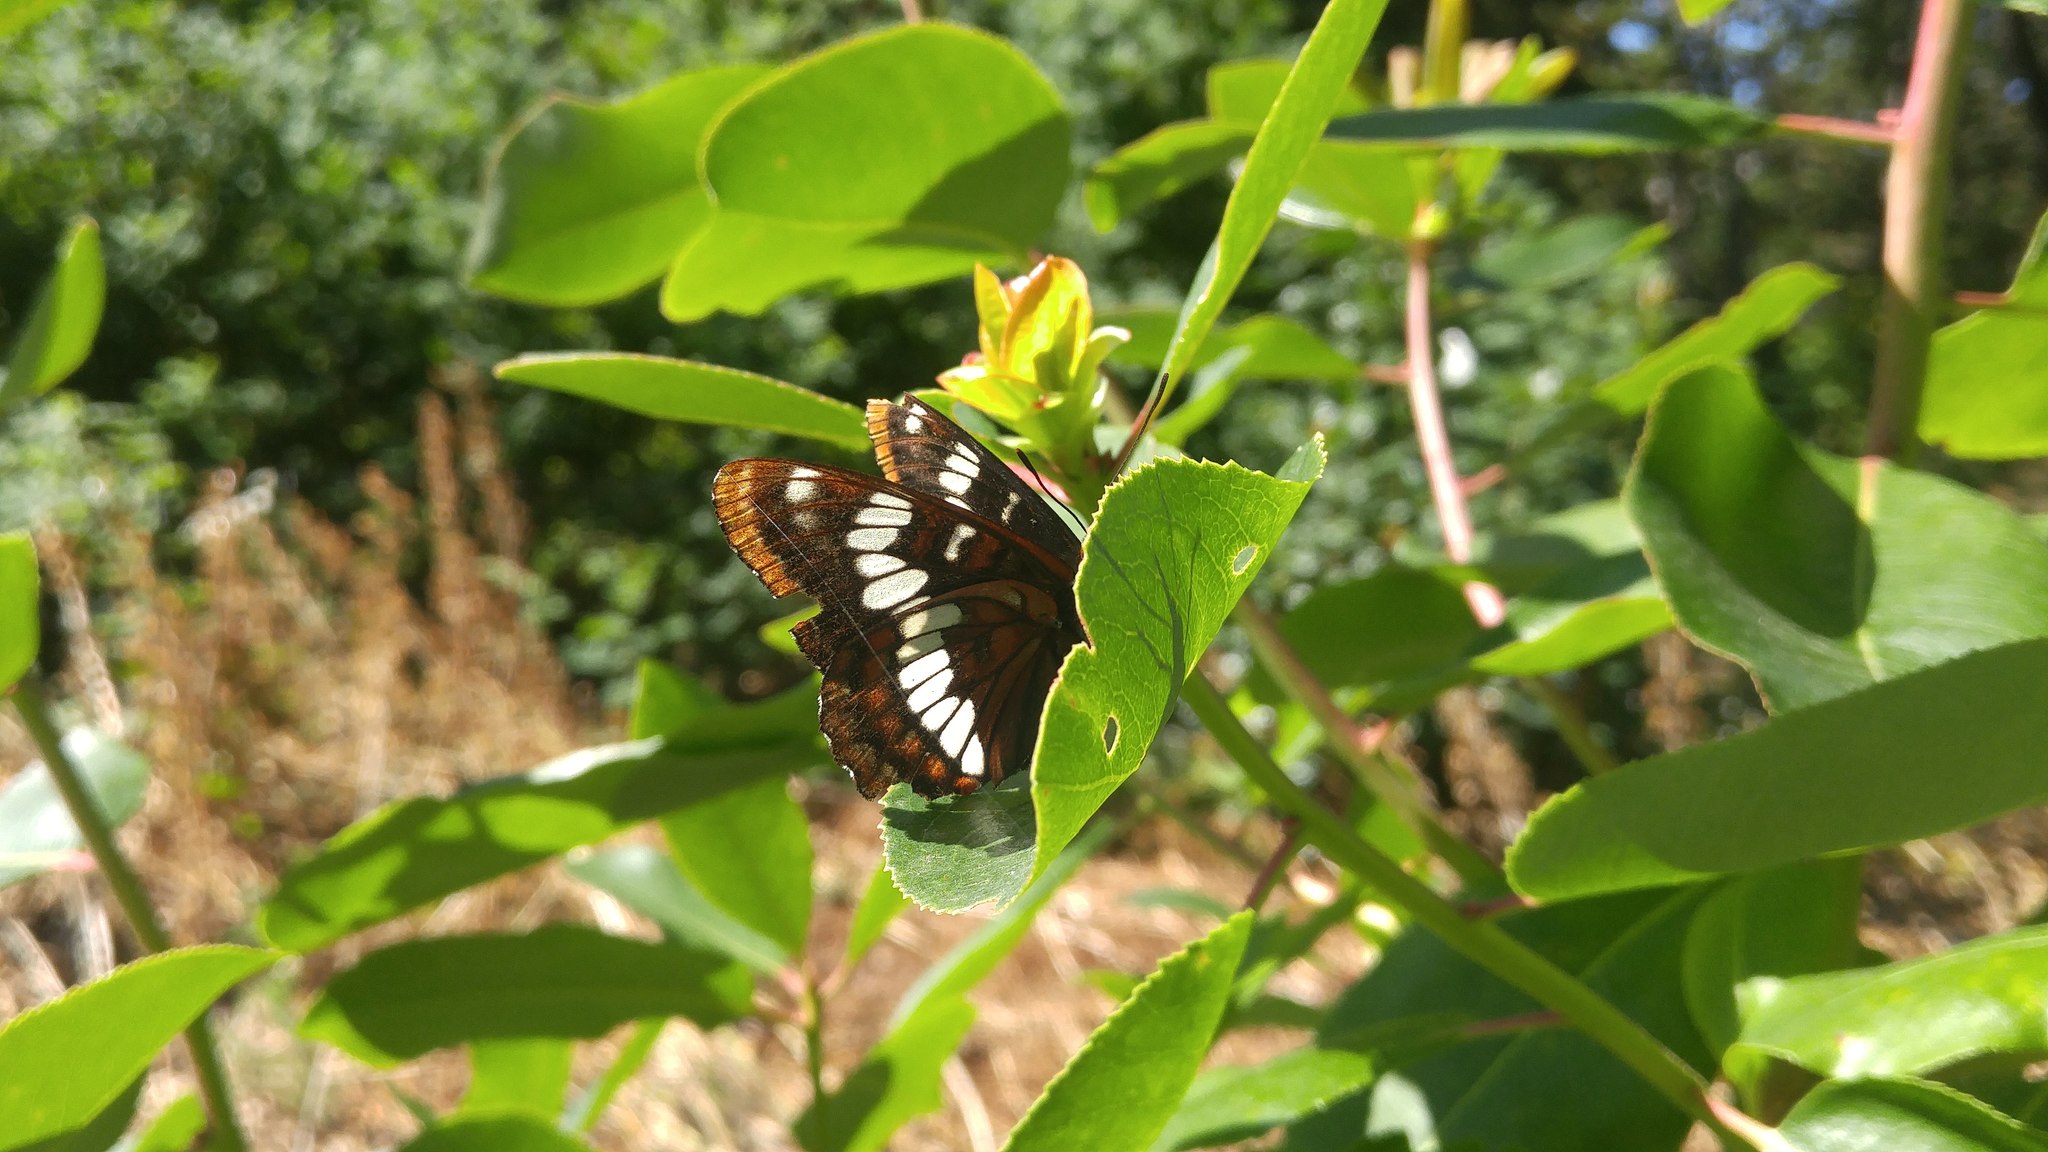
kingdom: Animalia
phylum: Arthropoda
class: Insecta
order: Lepidoptera
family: Nymphalidae
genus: Limenitis
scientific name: Limenitis lorquini
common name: Lorquin's admiral
